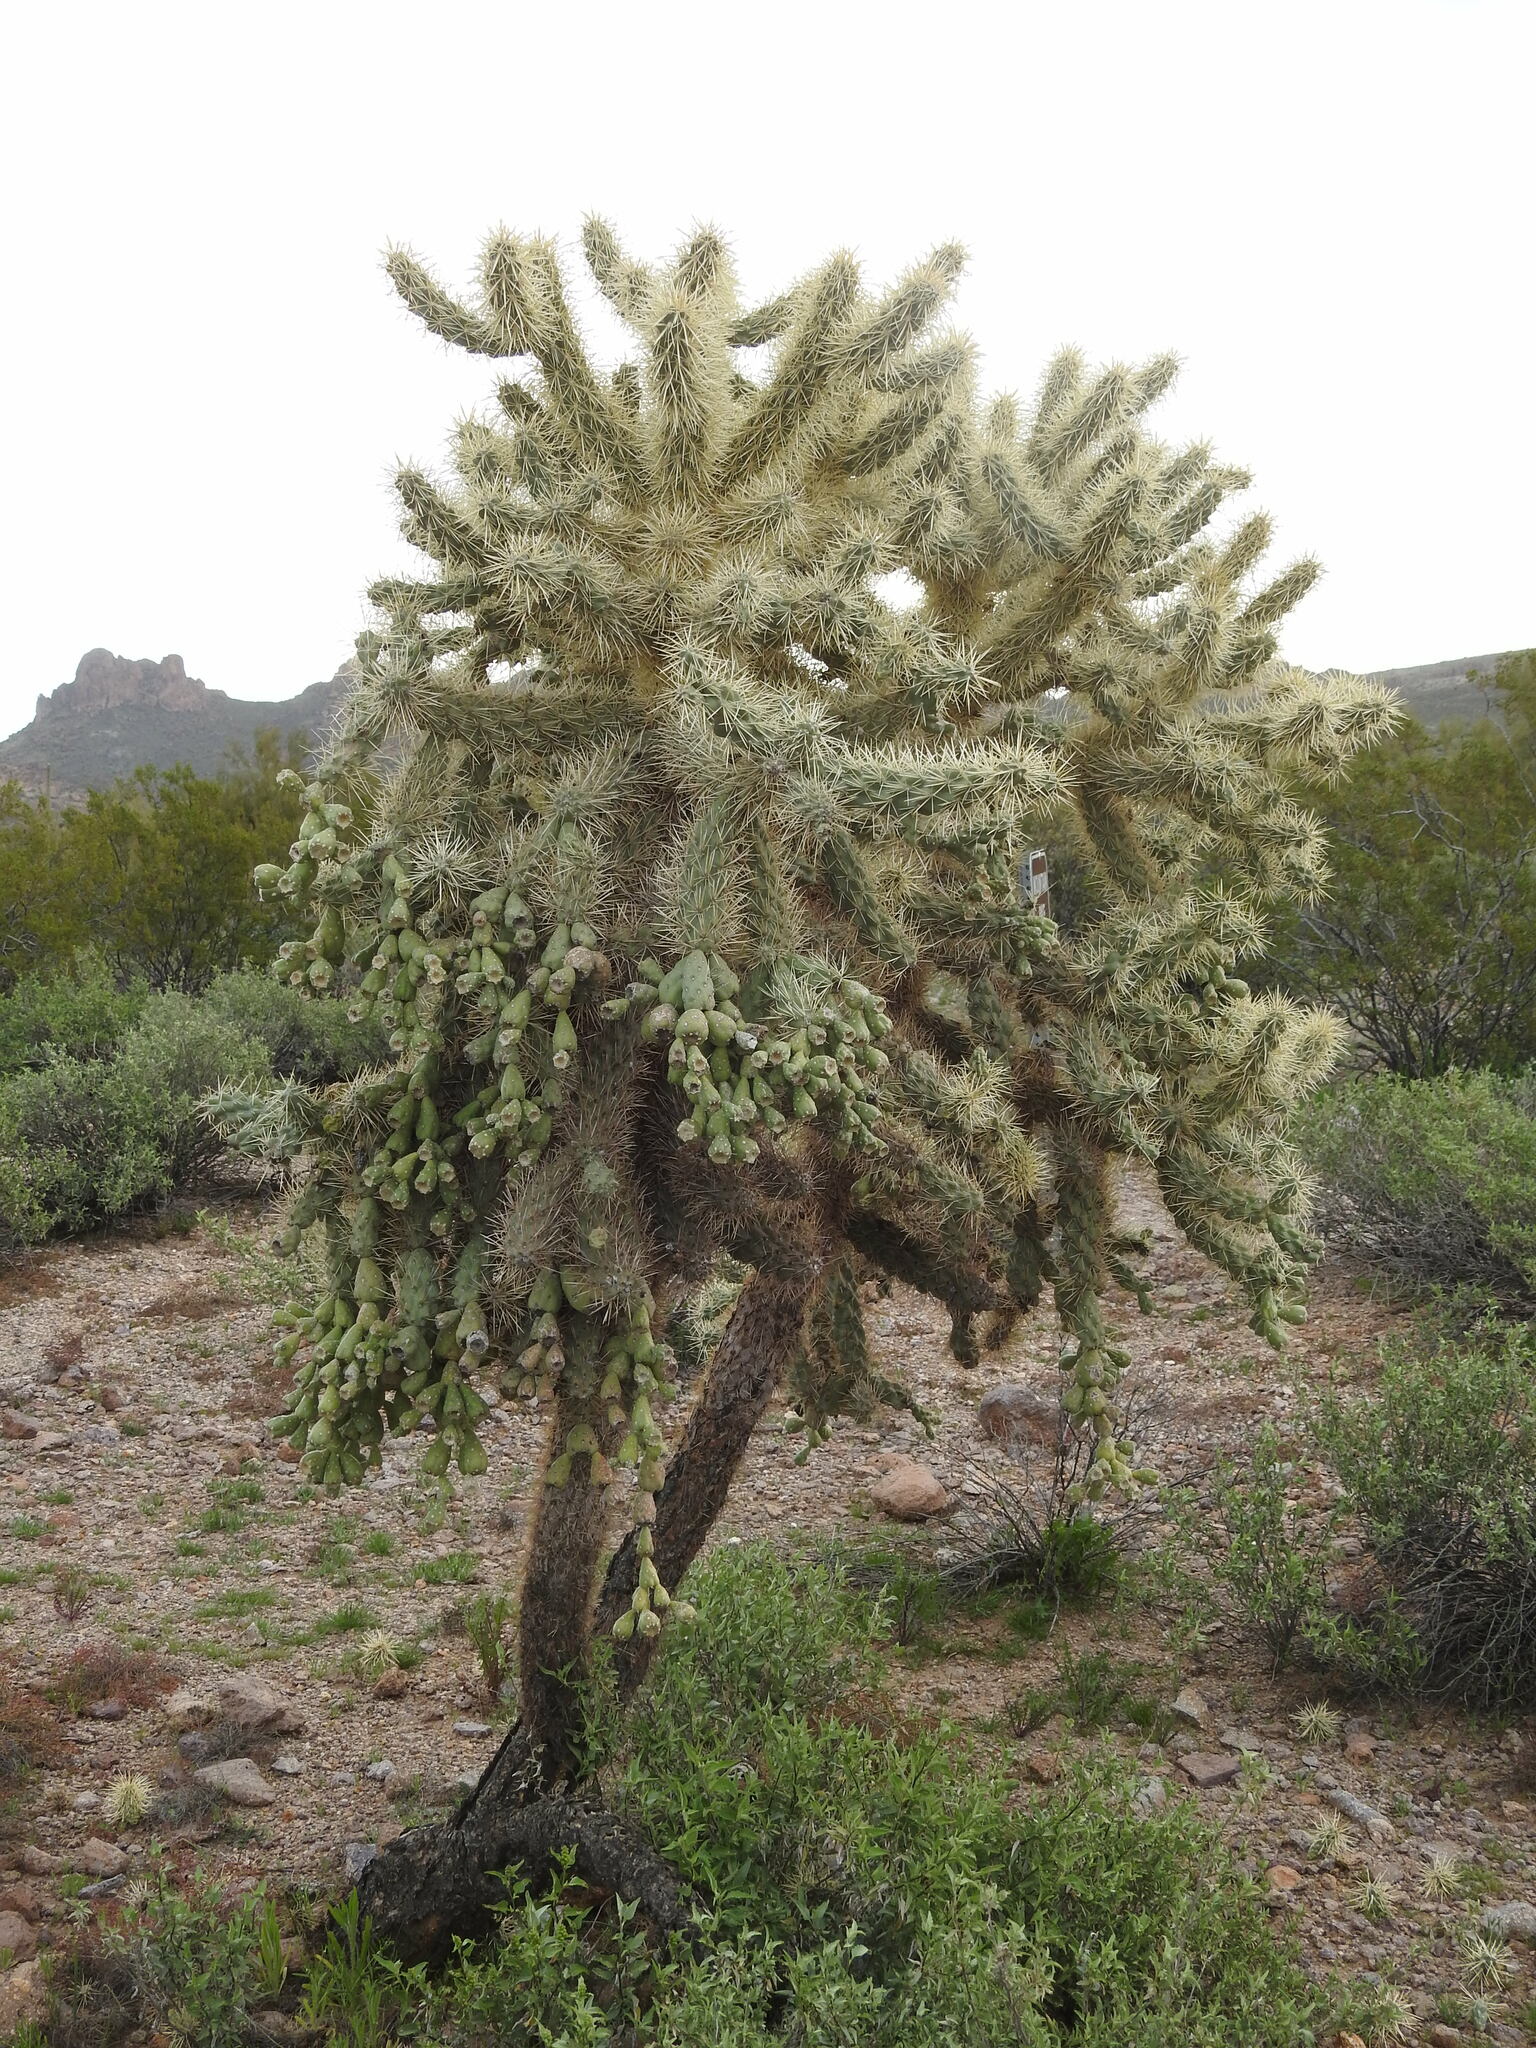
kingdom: Plantae
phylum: Tracheophyta
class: Magnoliopsida
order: Caryophyllales
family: Cactaceae
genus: Cylindropuntia
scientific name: Cylindropuntia fulgida
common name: Jumping cholla
